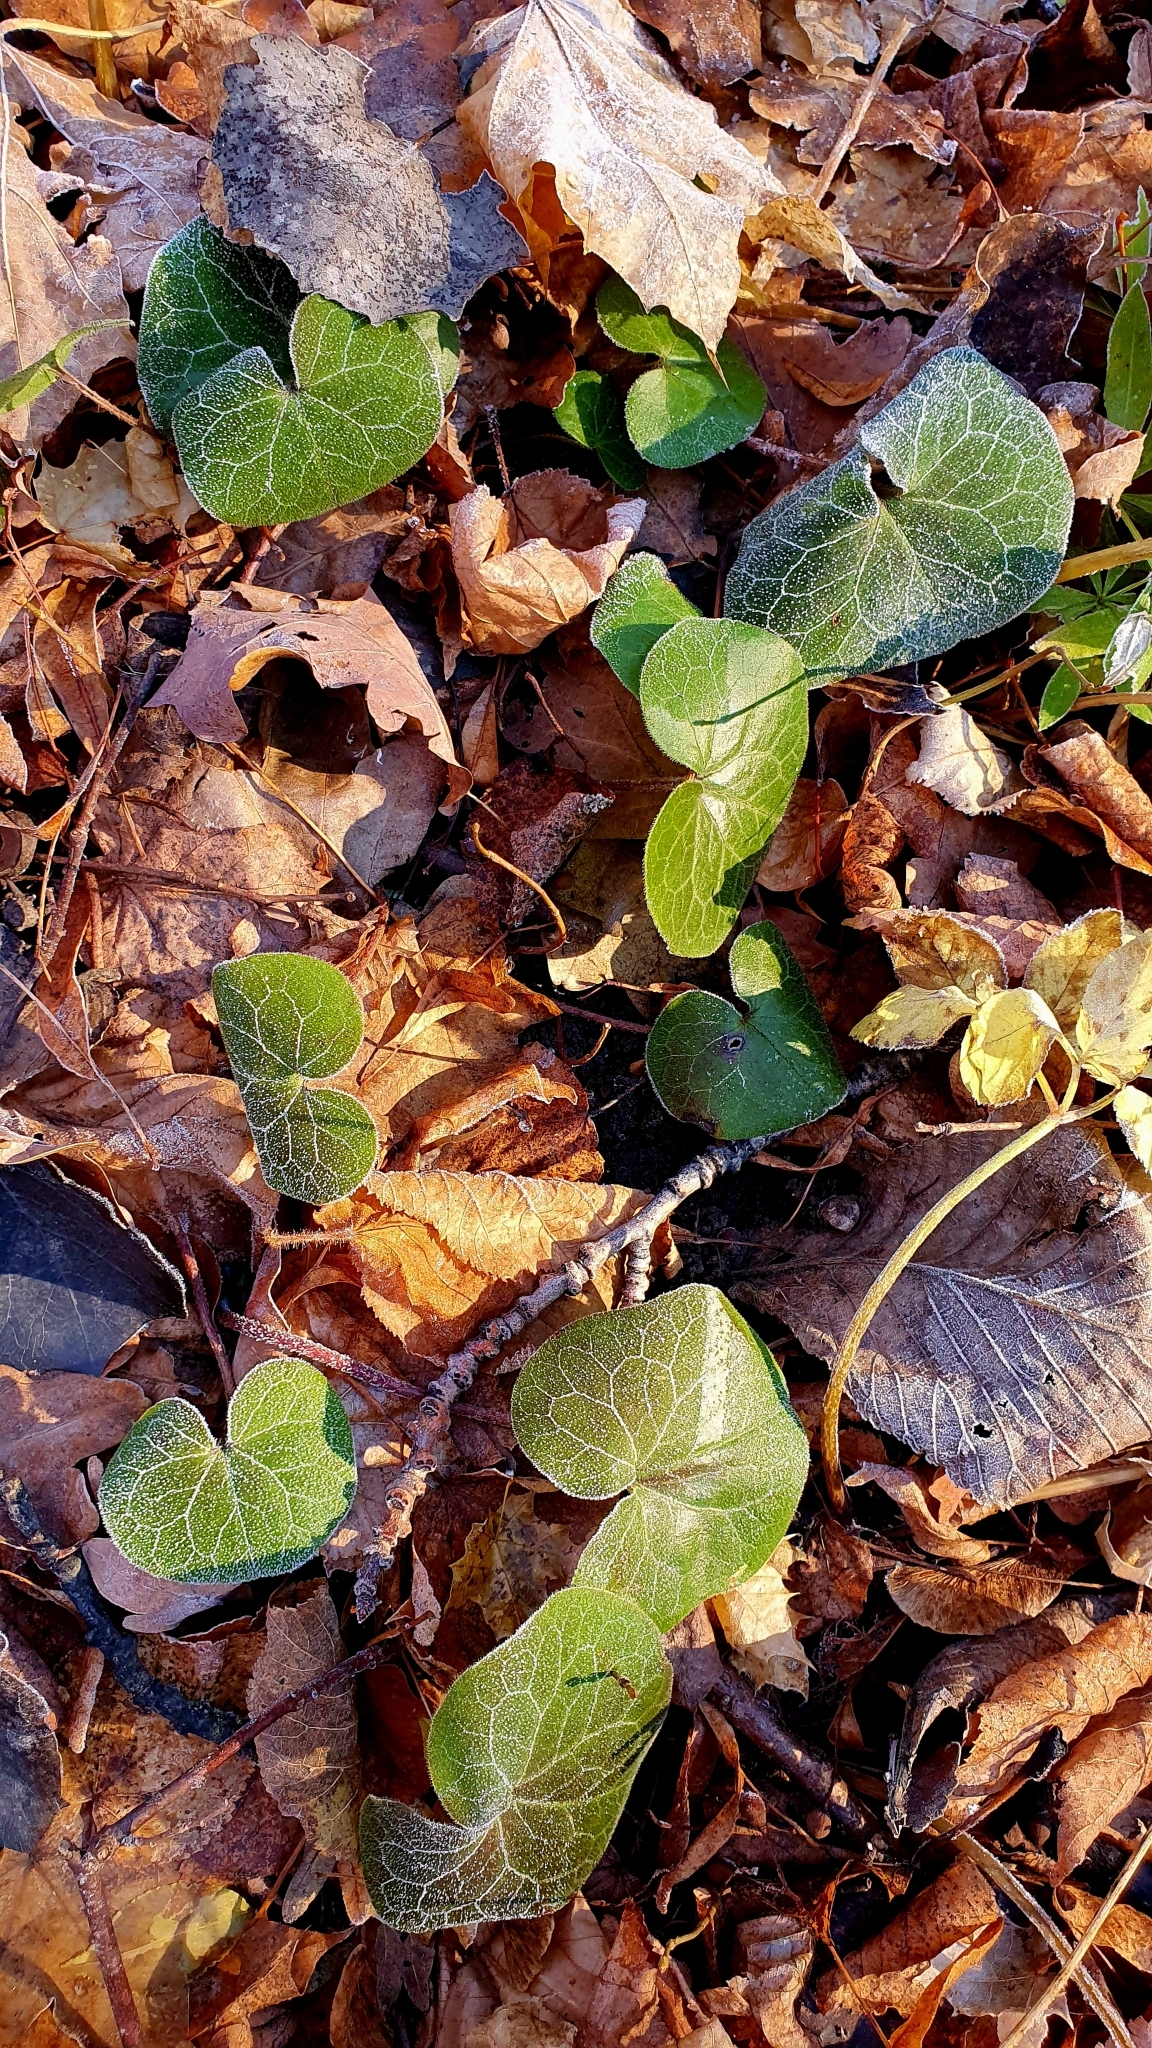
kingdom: Plantae
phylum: Tracheophyta
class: Magnoliopsida
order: Piperales
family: Aristolochiaceae
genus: Asarum
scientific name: Asarum europaeum
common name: Asarabacca
